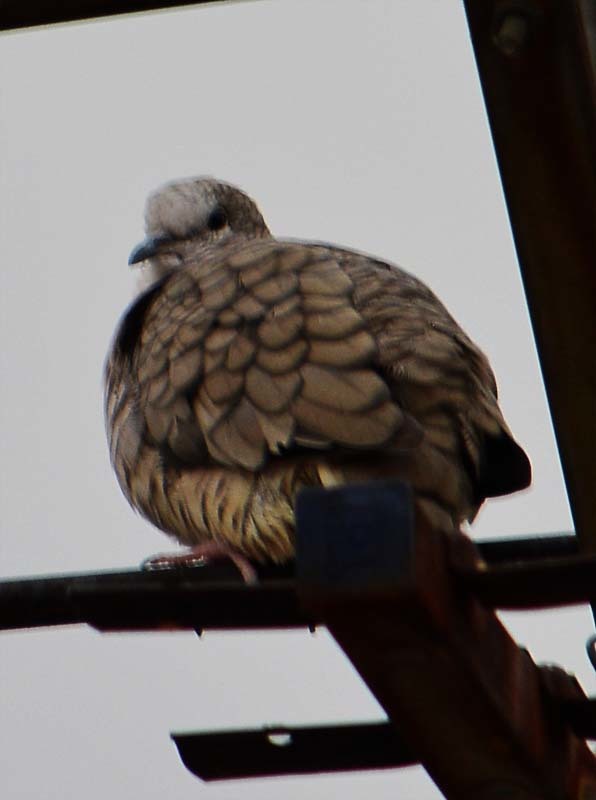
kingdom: Animalia
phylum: Chordata
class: Aves
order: Columbiformes
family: Columbidae
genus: Columbina
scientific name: Columbina inca
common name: Inca dove
